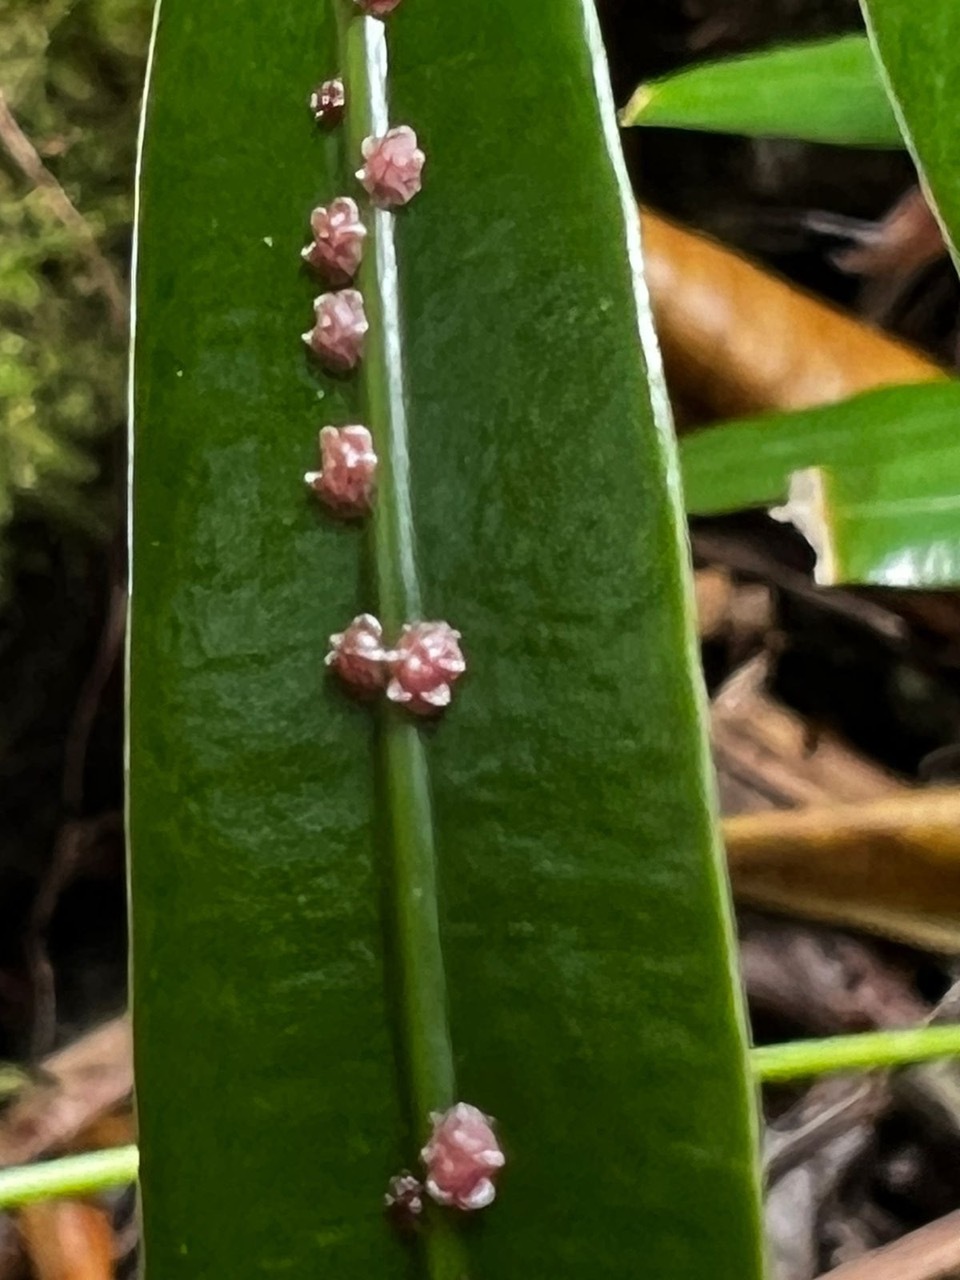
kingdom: Animalia
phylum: Arthropoda
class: Insecta
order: Hemiptera
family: Coccidae
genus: Ceroplastes
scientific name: Ceroplastes rubens
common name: Pink wax scale
